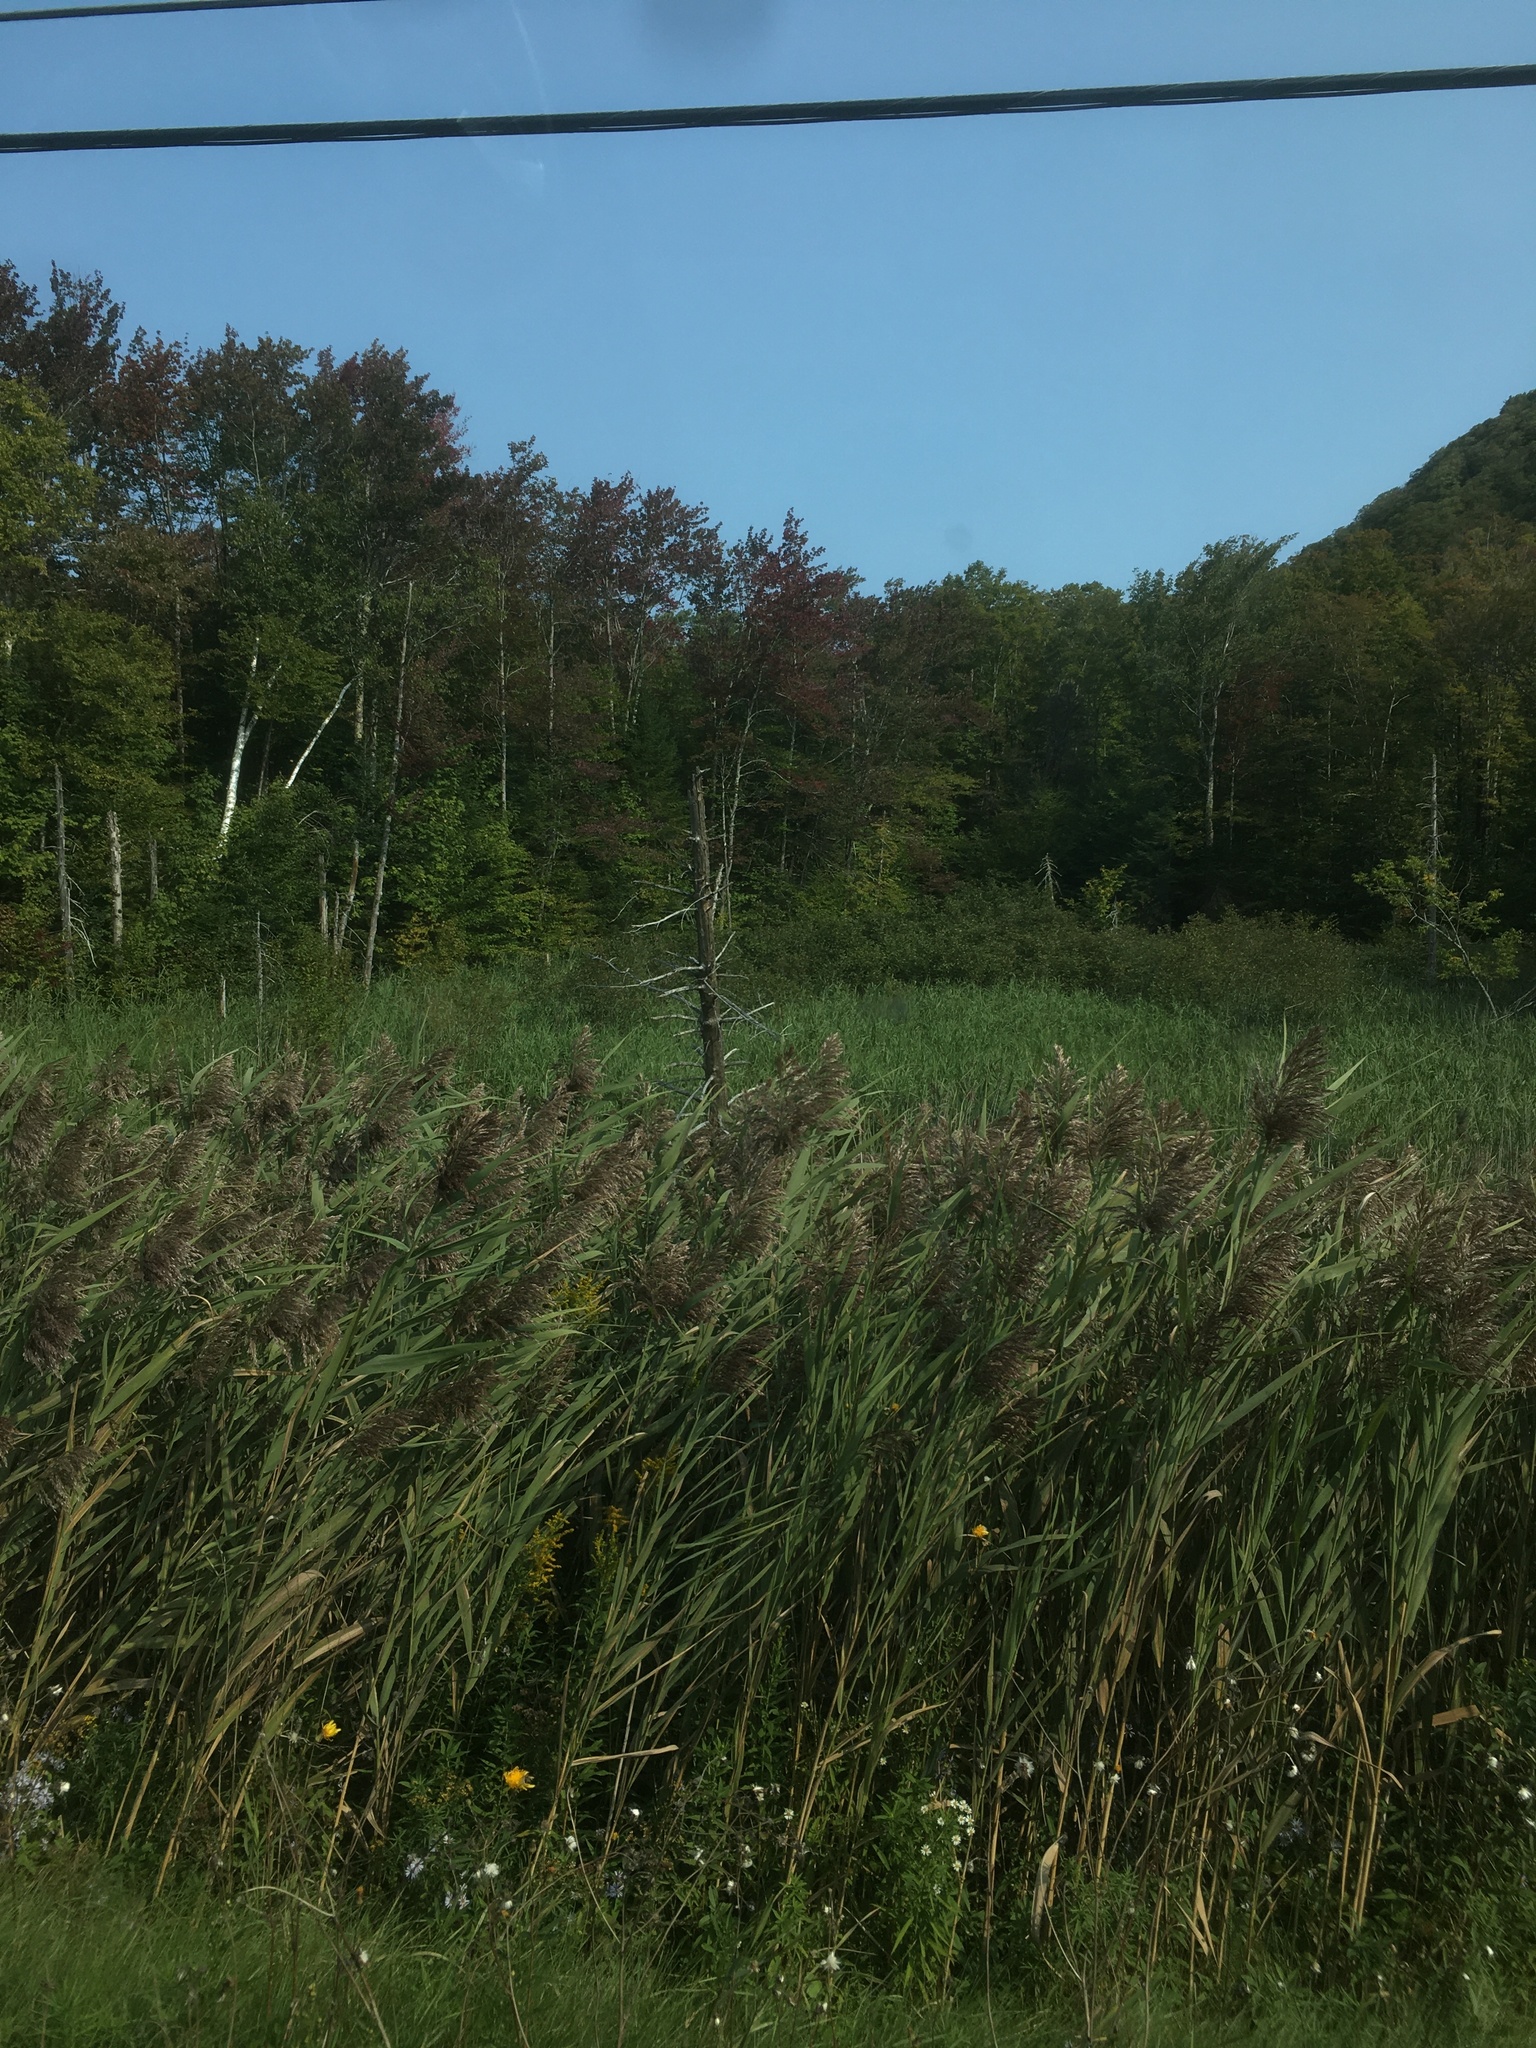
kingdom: Plantae
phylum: Tracheophyta
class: Liliopsida
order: Poales
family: Poaceae
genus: Phragmites
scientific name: Phragmites australis
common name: Common reed
